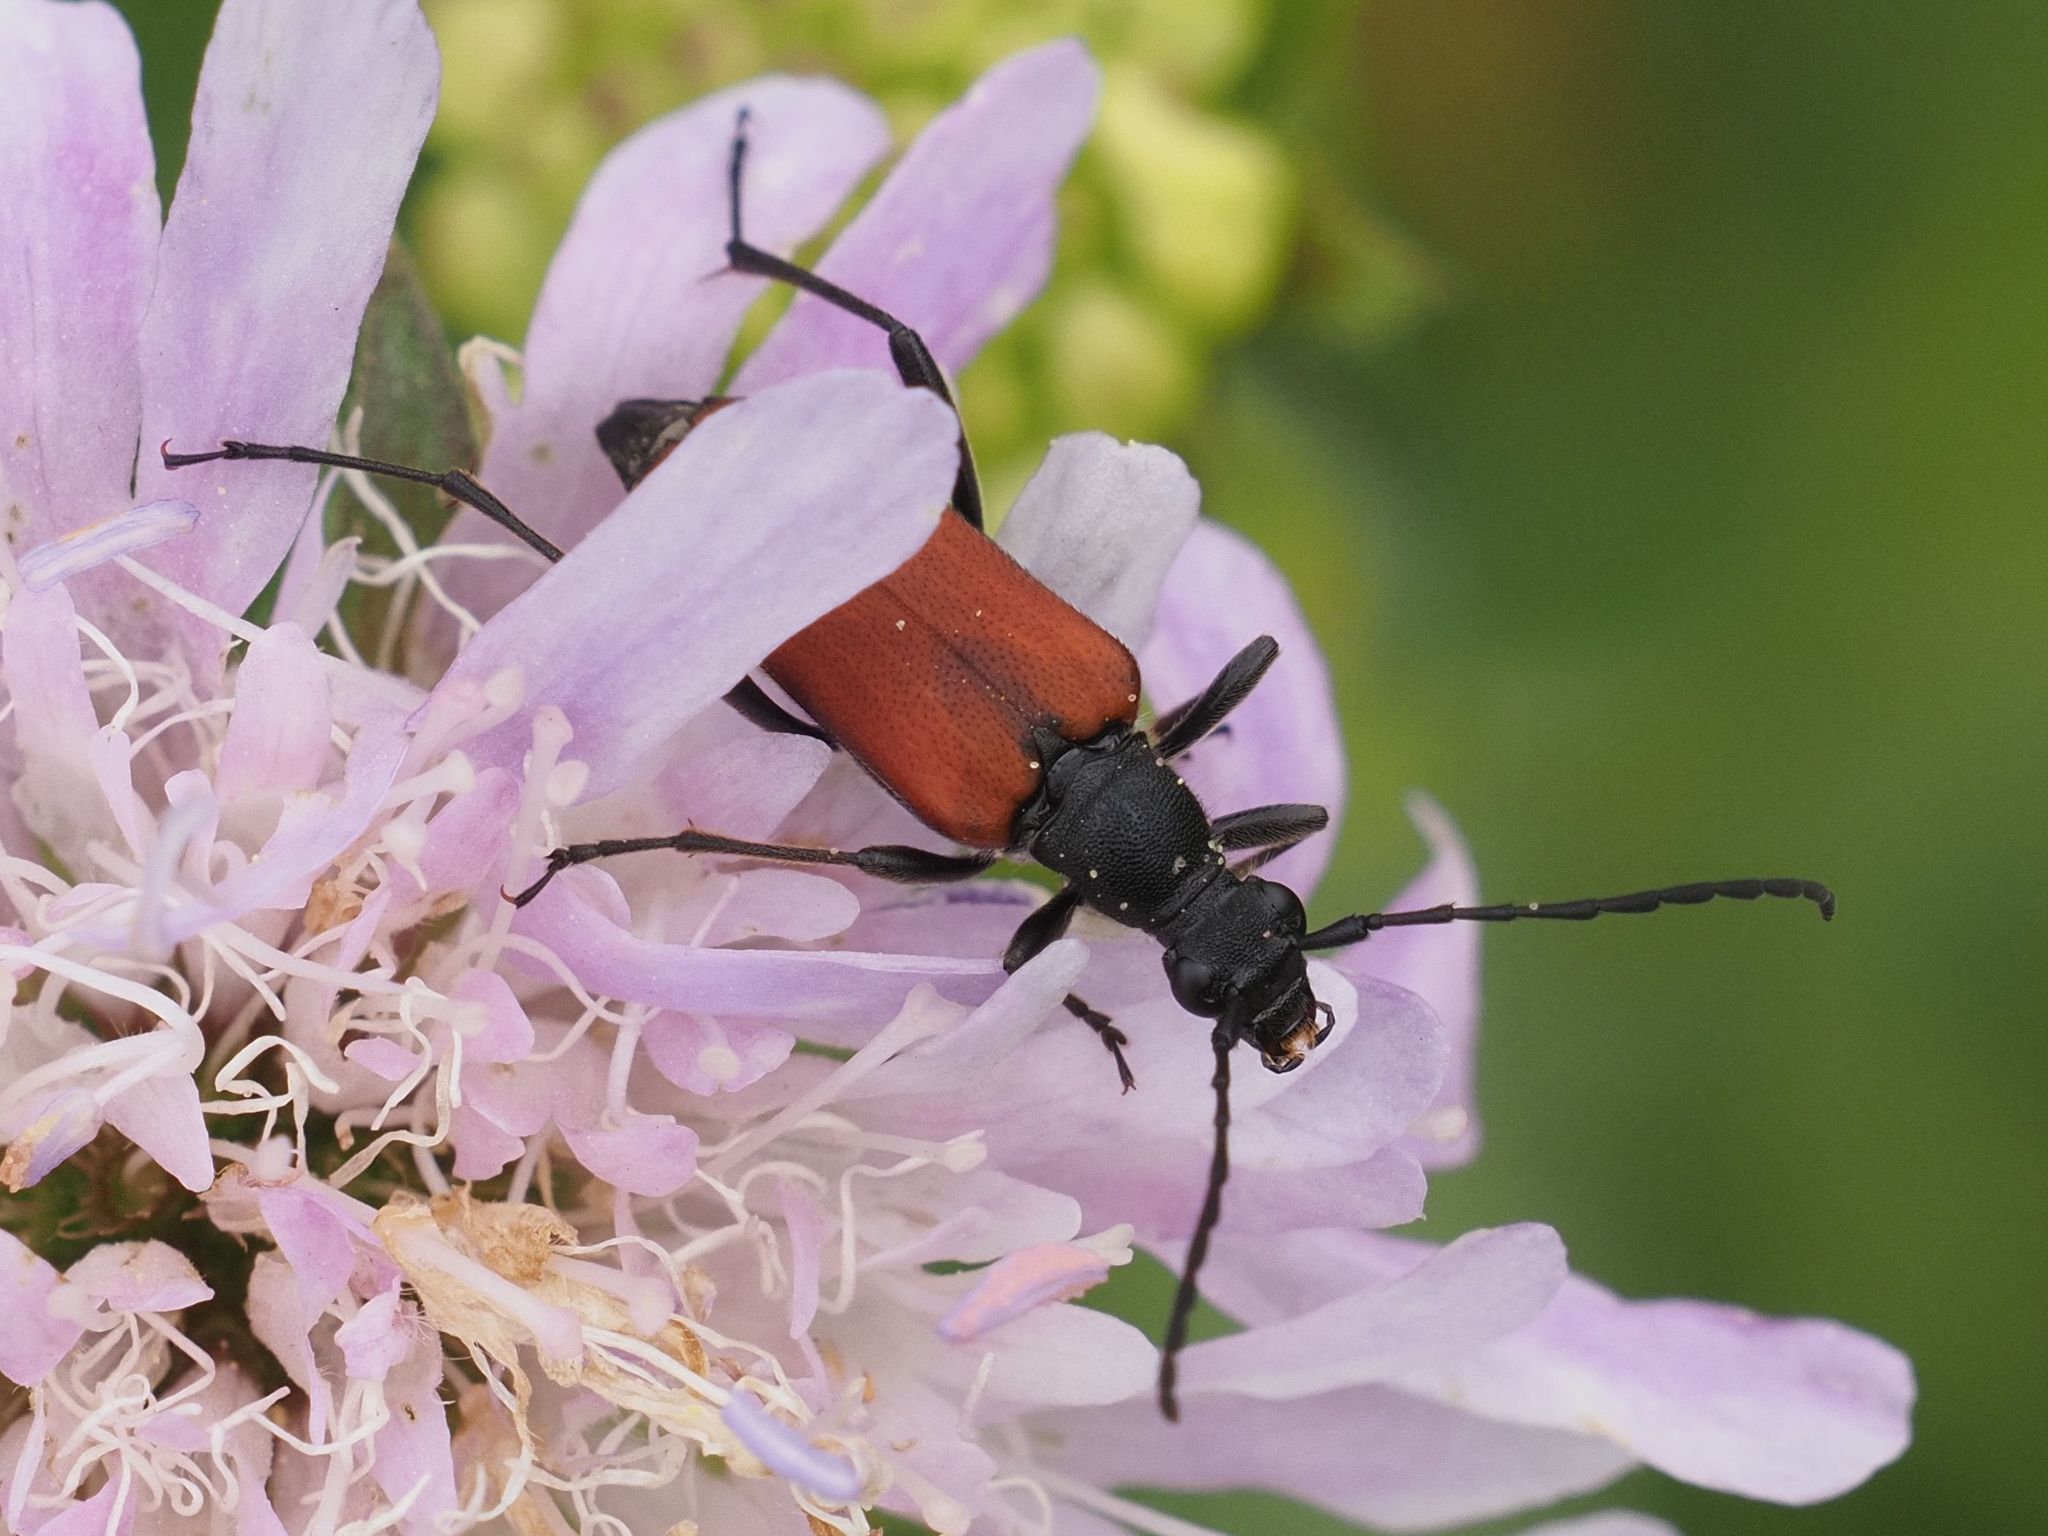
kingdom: Animalia
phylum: Arthropoda
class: Insecta
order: Coleoptera
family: Cerambycidae
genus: Anastrangalia
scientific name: Anastrangalia sanguinolenta
